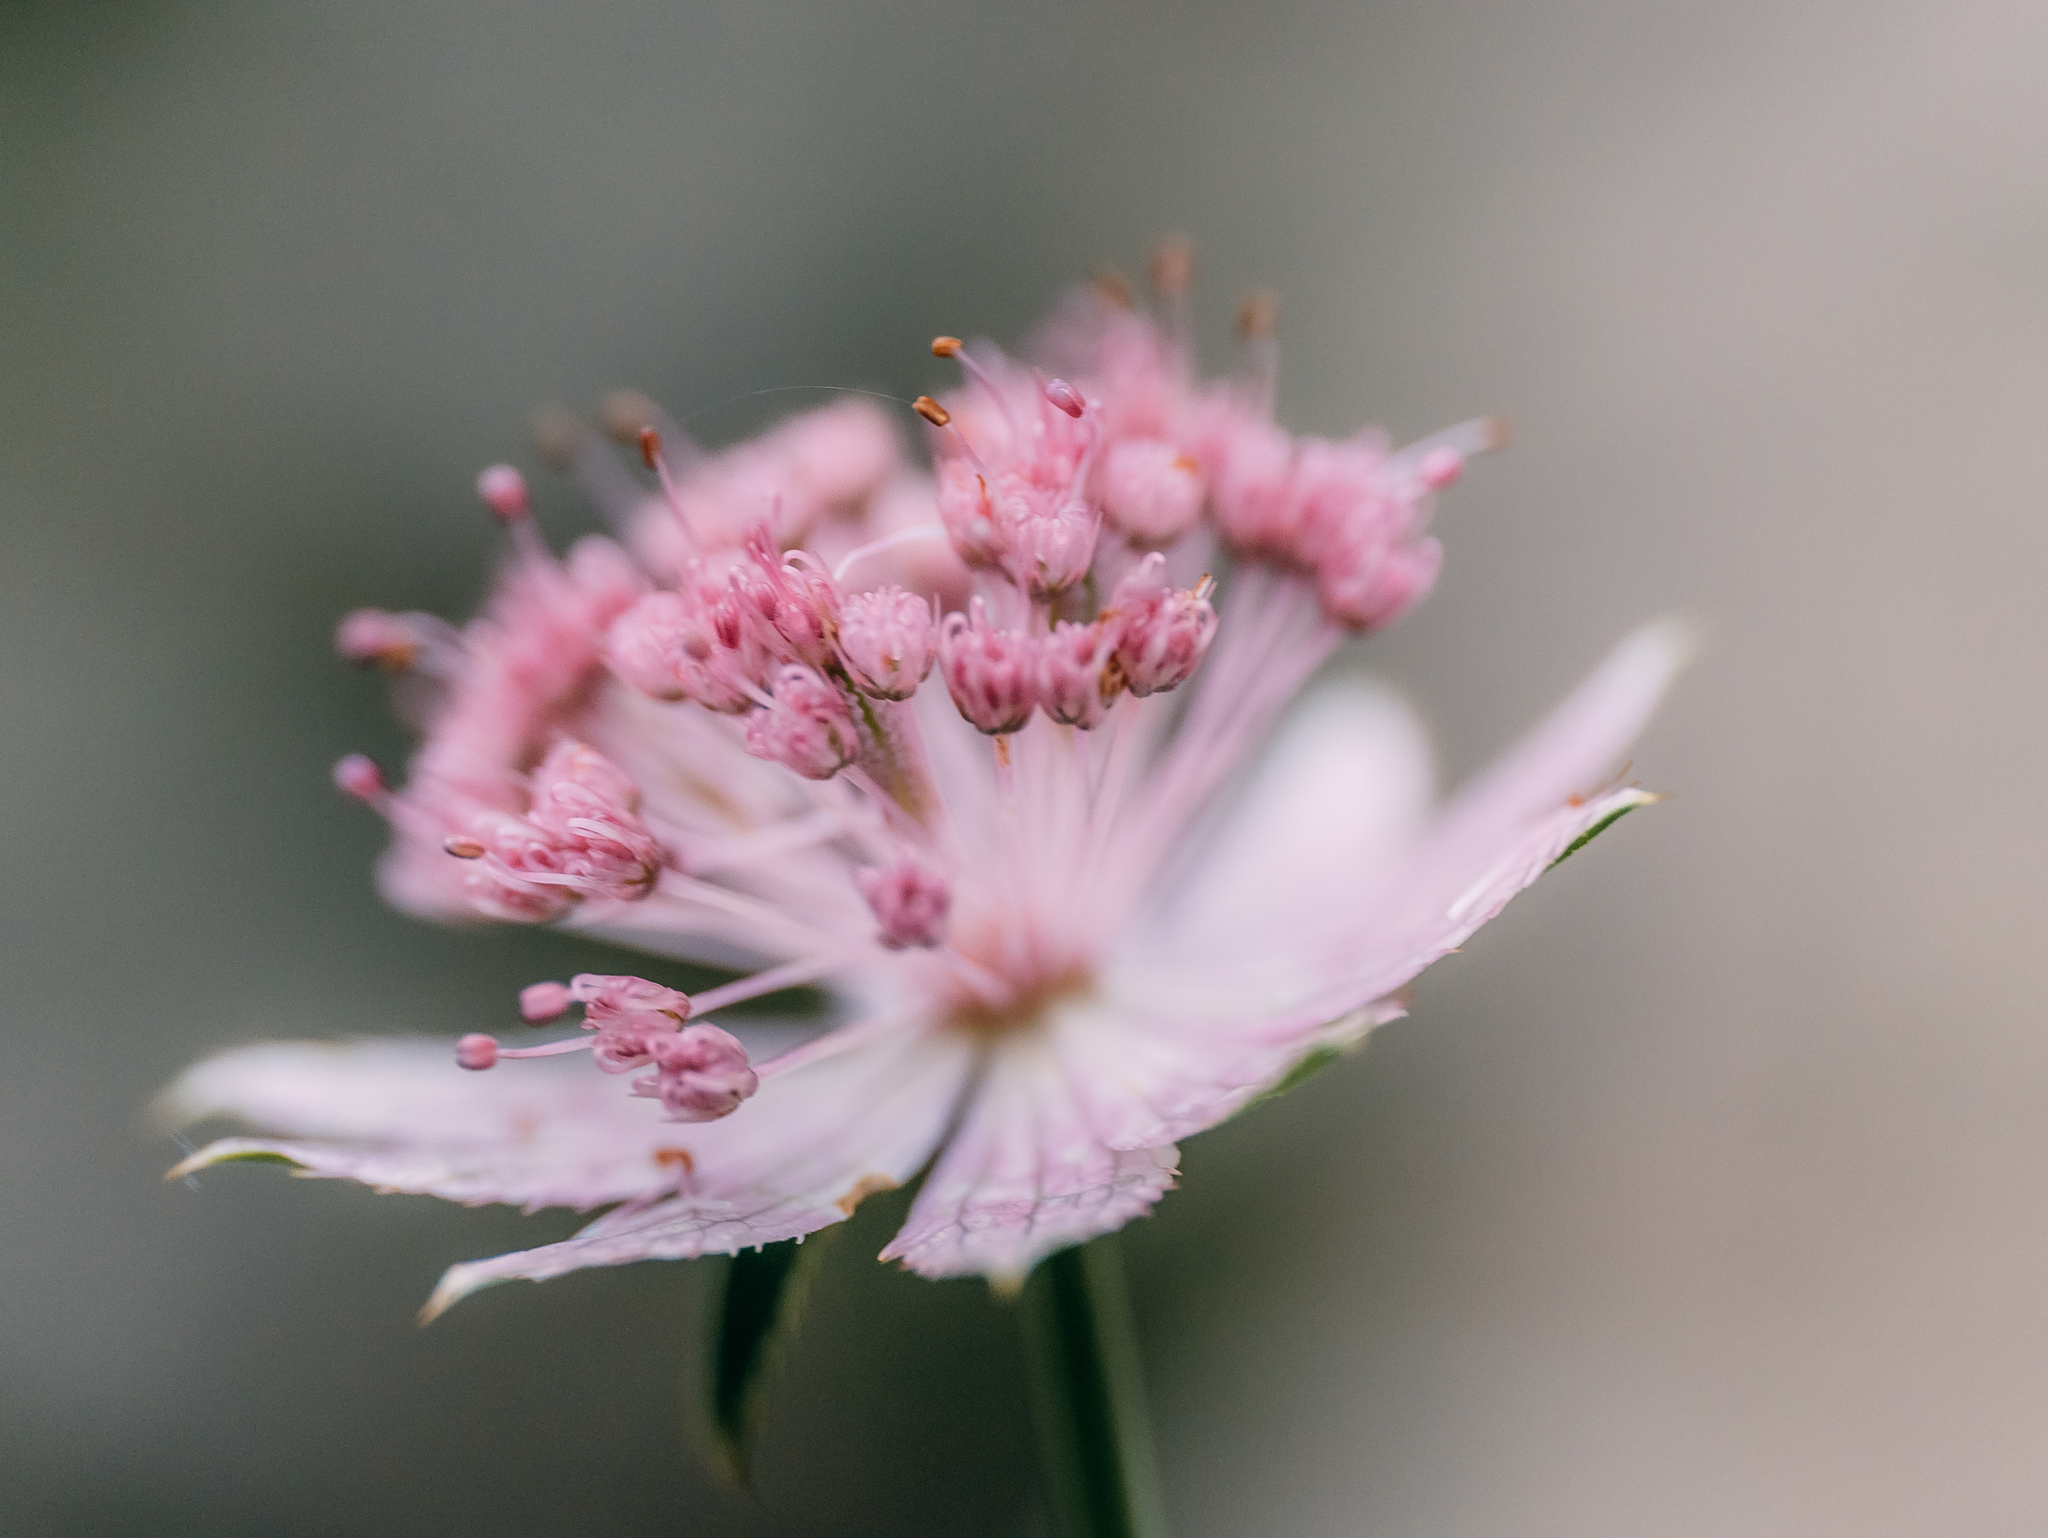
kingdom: Plantae
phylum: Tracheophyta
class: Magnoliopsida
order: Apiales
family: Apiaceae
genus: Astrantia
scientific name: Astrantia maxima
